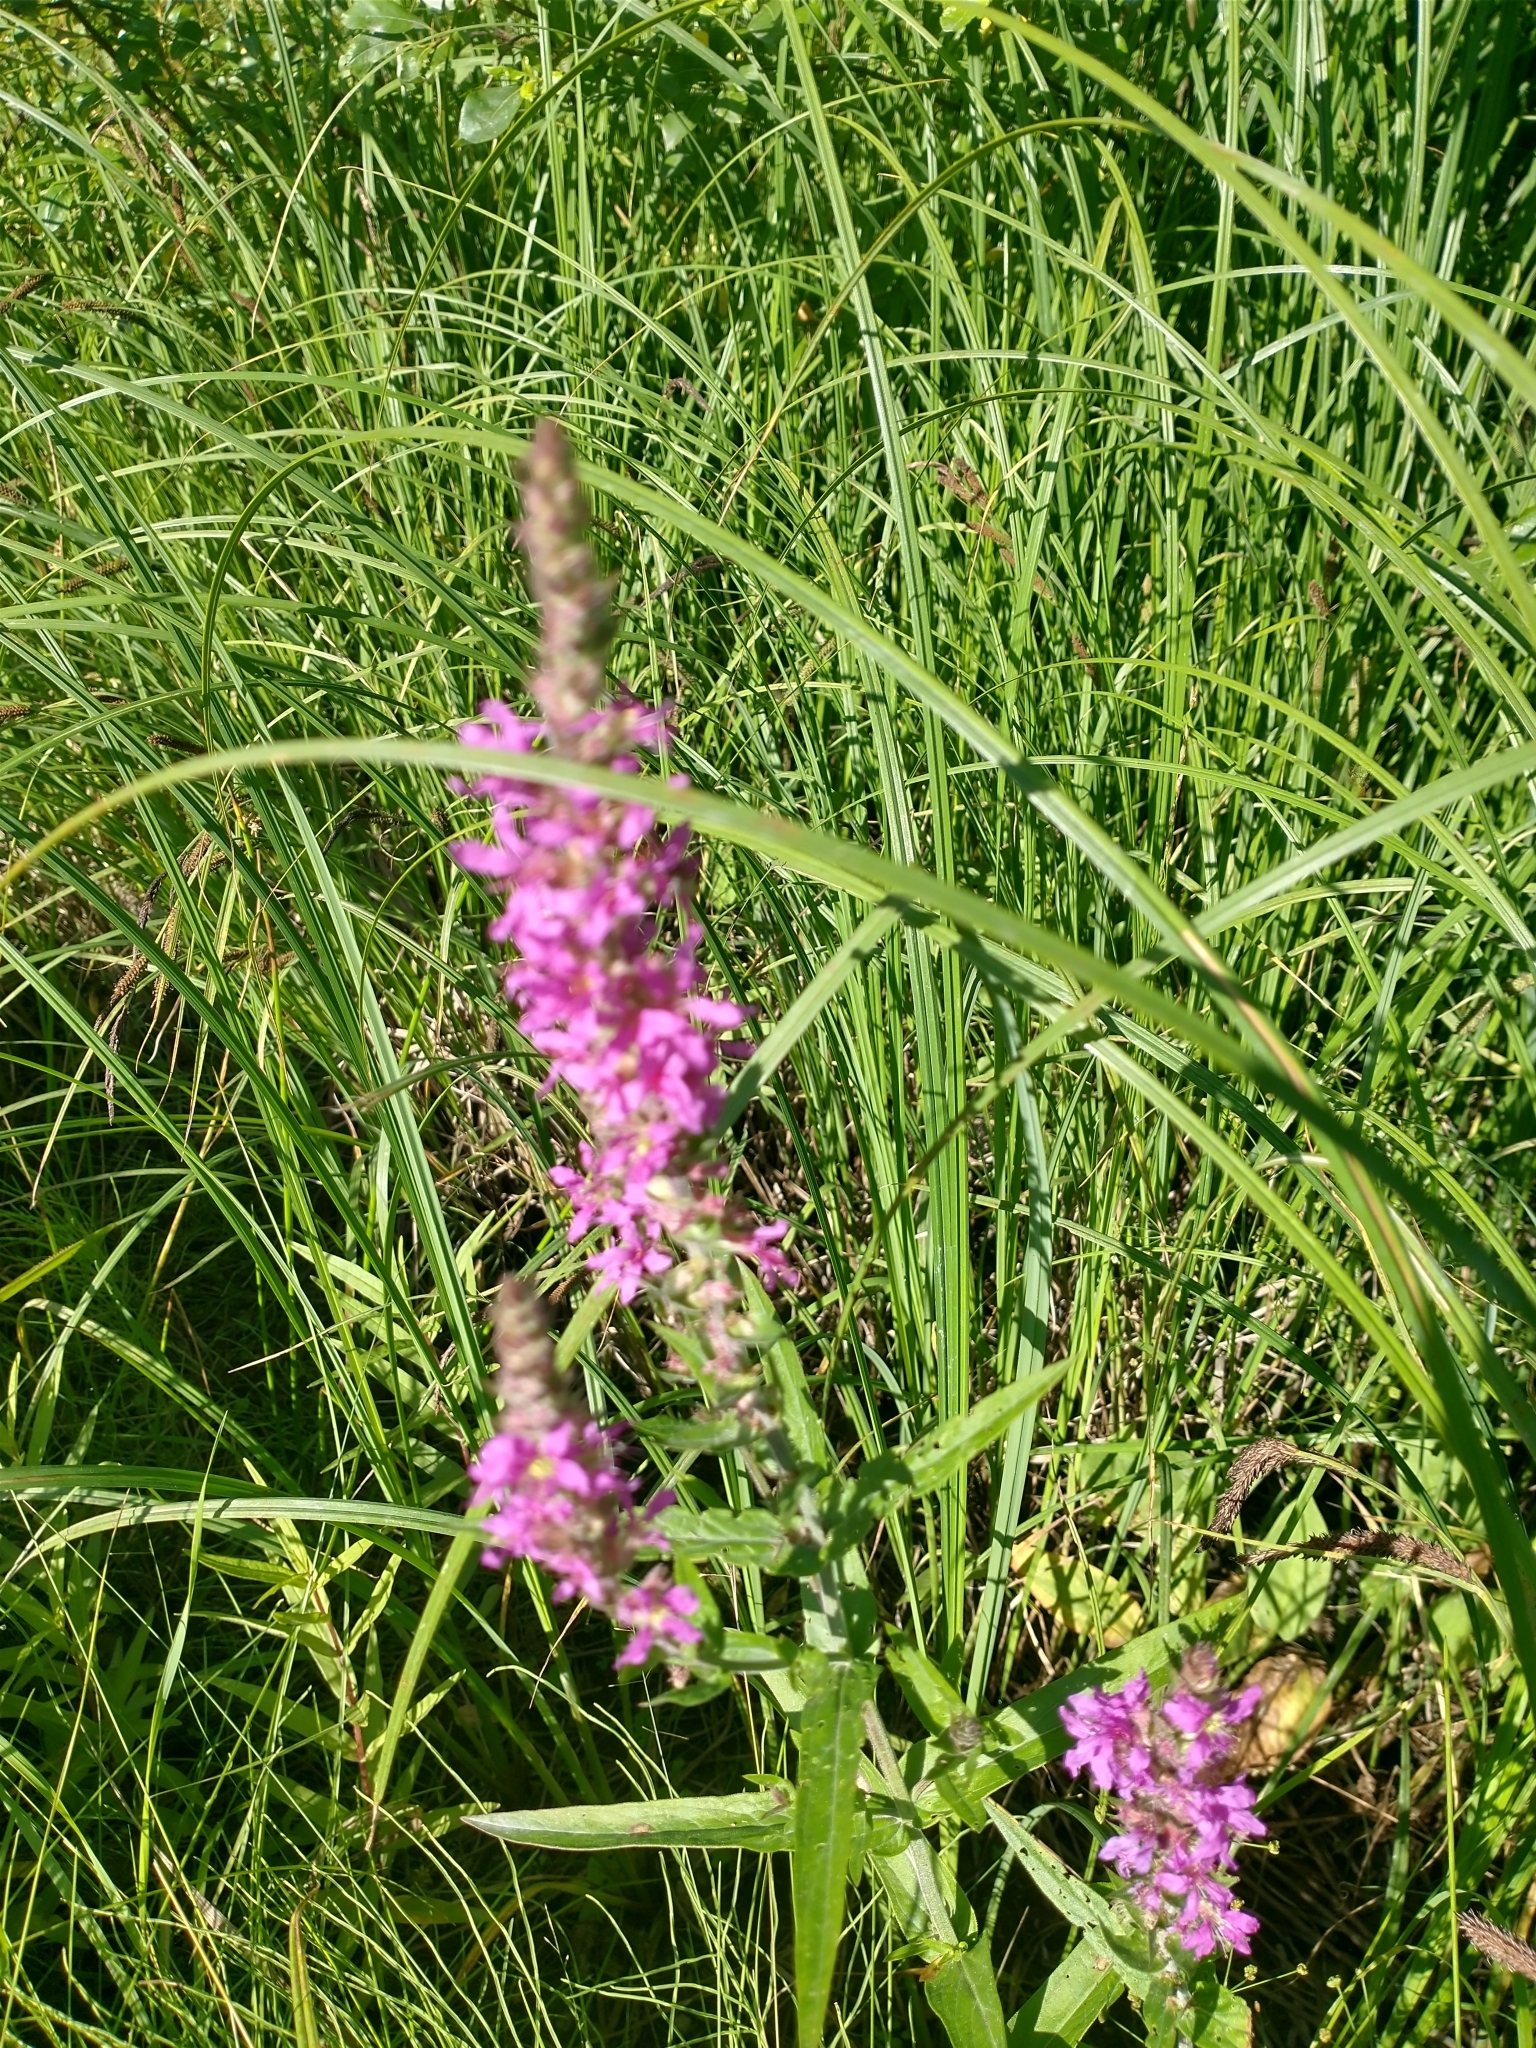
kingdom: Plantae
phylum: Tracheophyta
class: Magnoliopsida
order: Myrtales
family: Lythraceae
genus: Lythrum
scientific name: Lythrum salicaria
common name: Purple loosestrife
